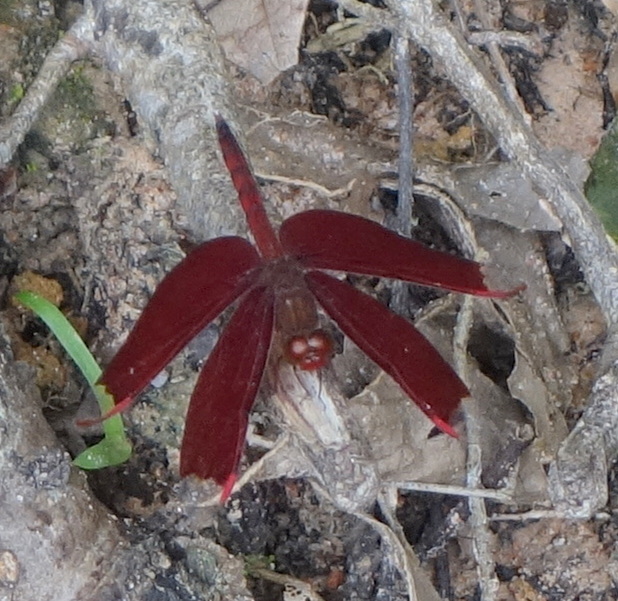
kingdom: Animalia
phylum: Arthropoda
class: Insecta
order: Odonata
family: Libellulidae
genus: Neurothemis
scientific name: Neurothemis fulvia
